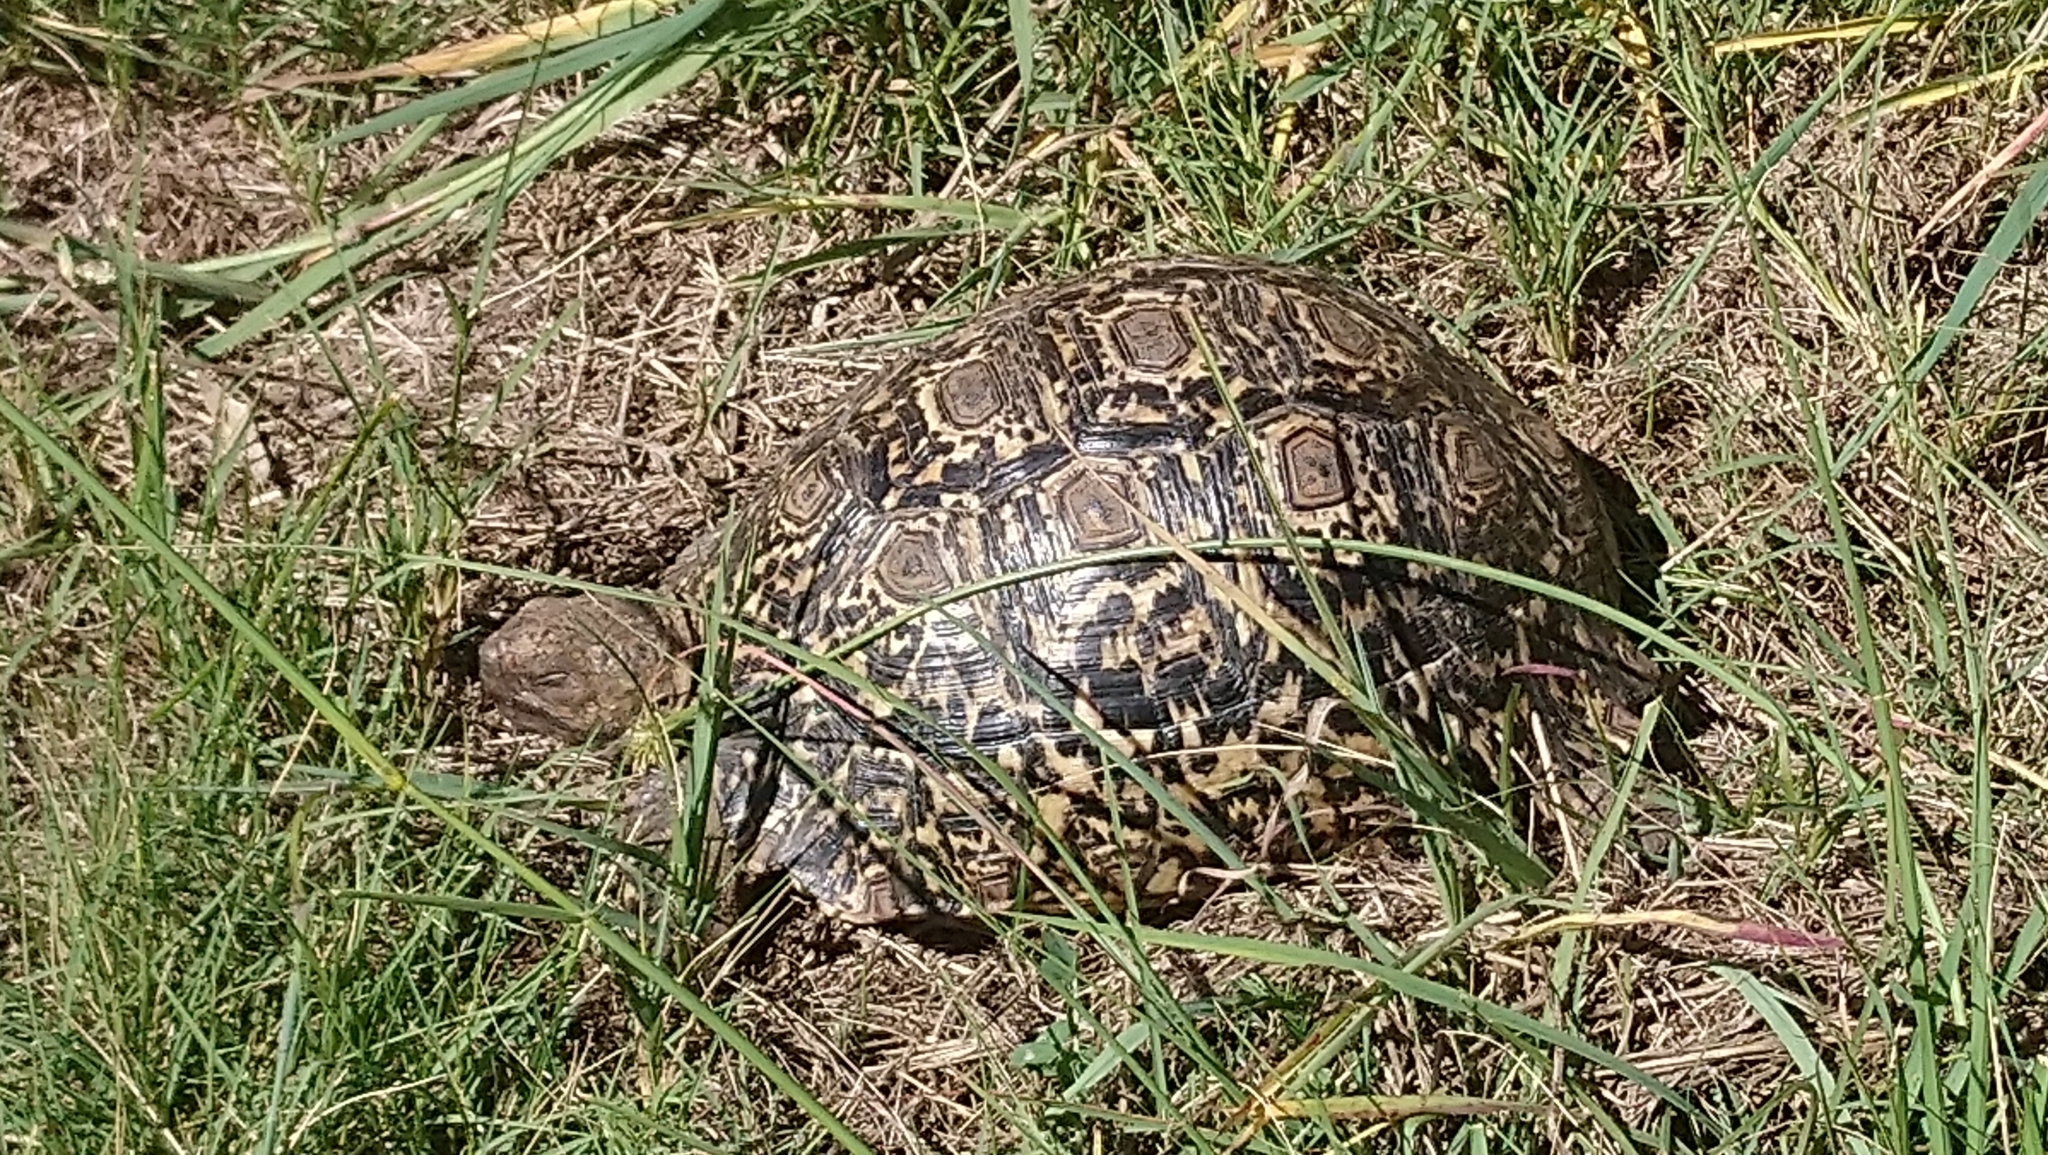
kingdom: Animalia
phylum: Chordata
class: Testudines
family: Testudinidae
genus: Stigmochelys
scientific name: Stigmochelys pardalis
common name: Leopard tortoise
